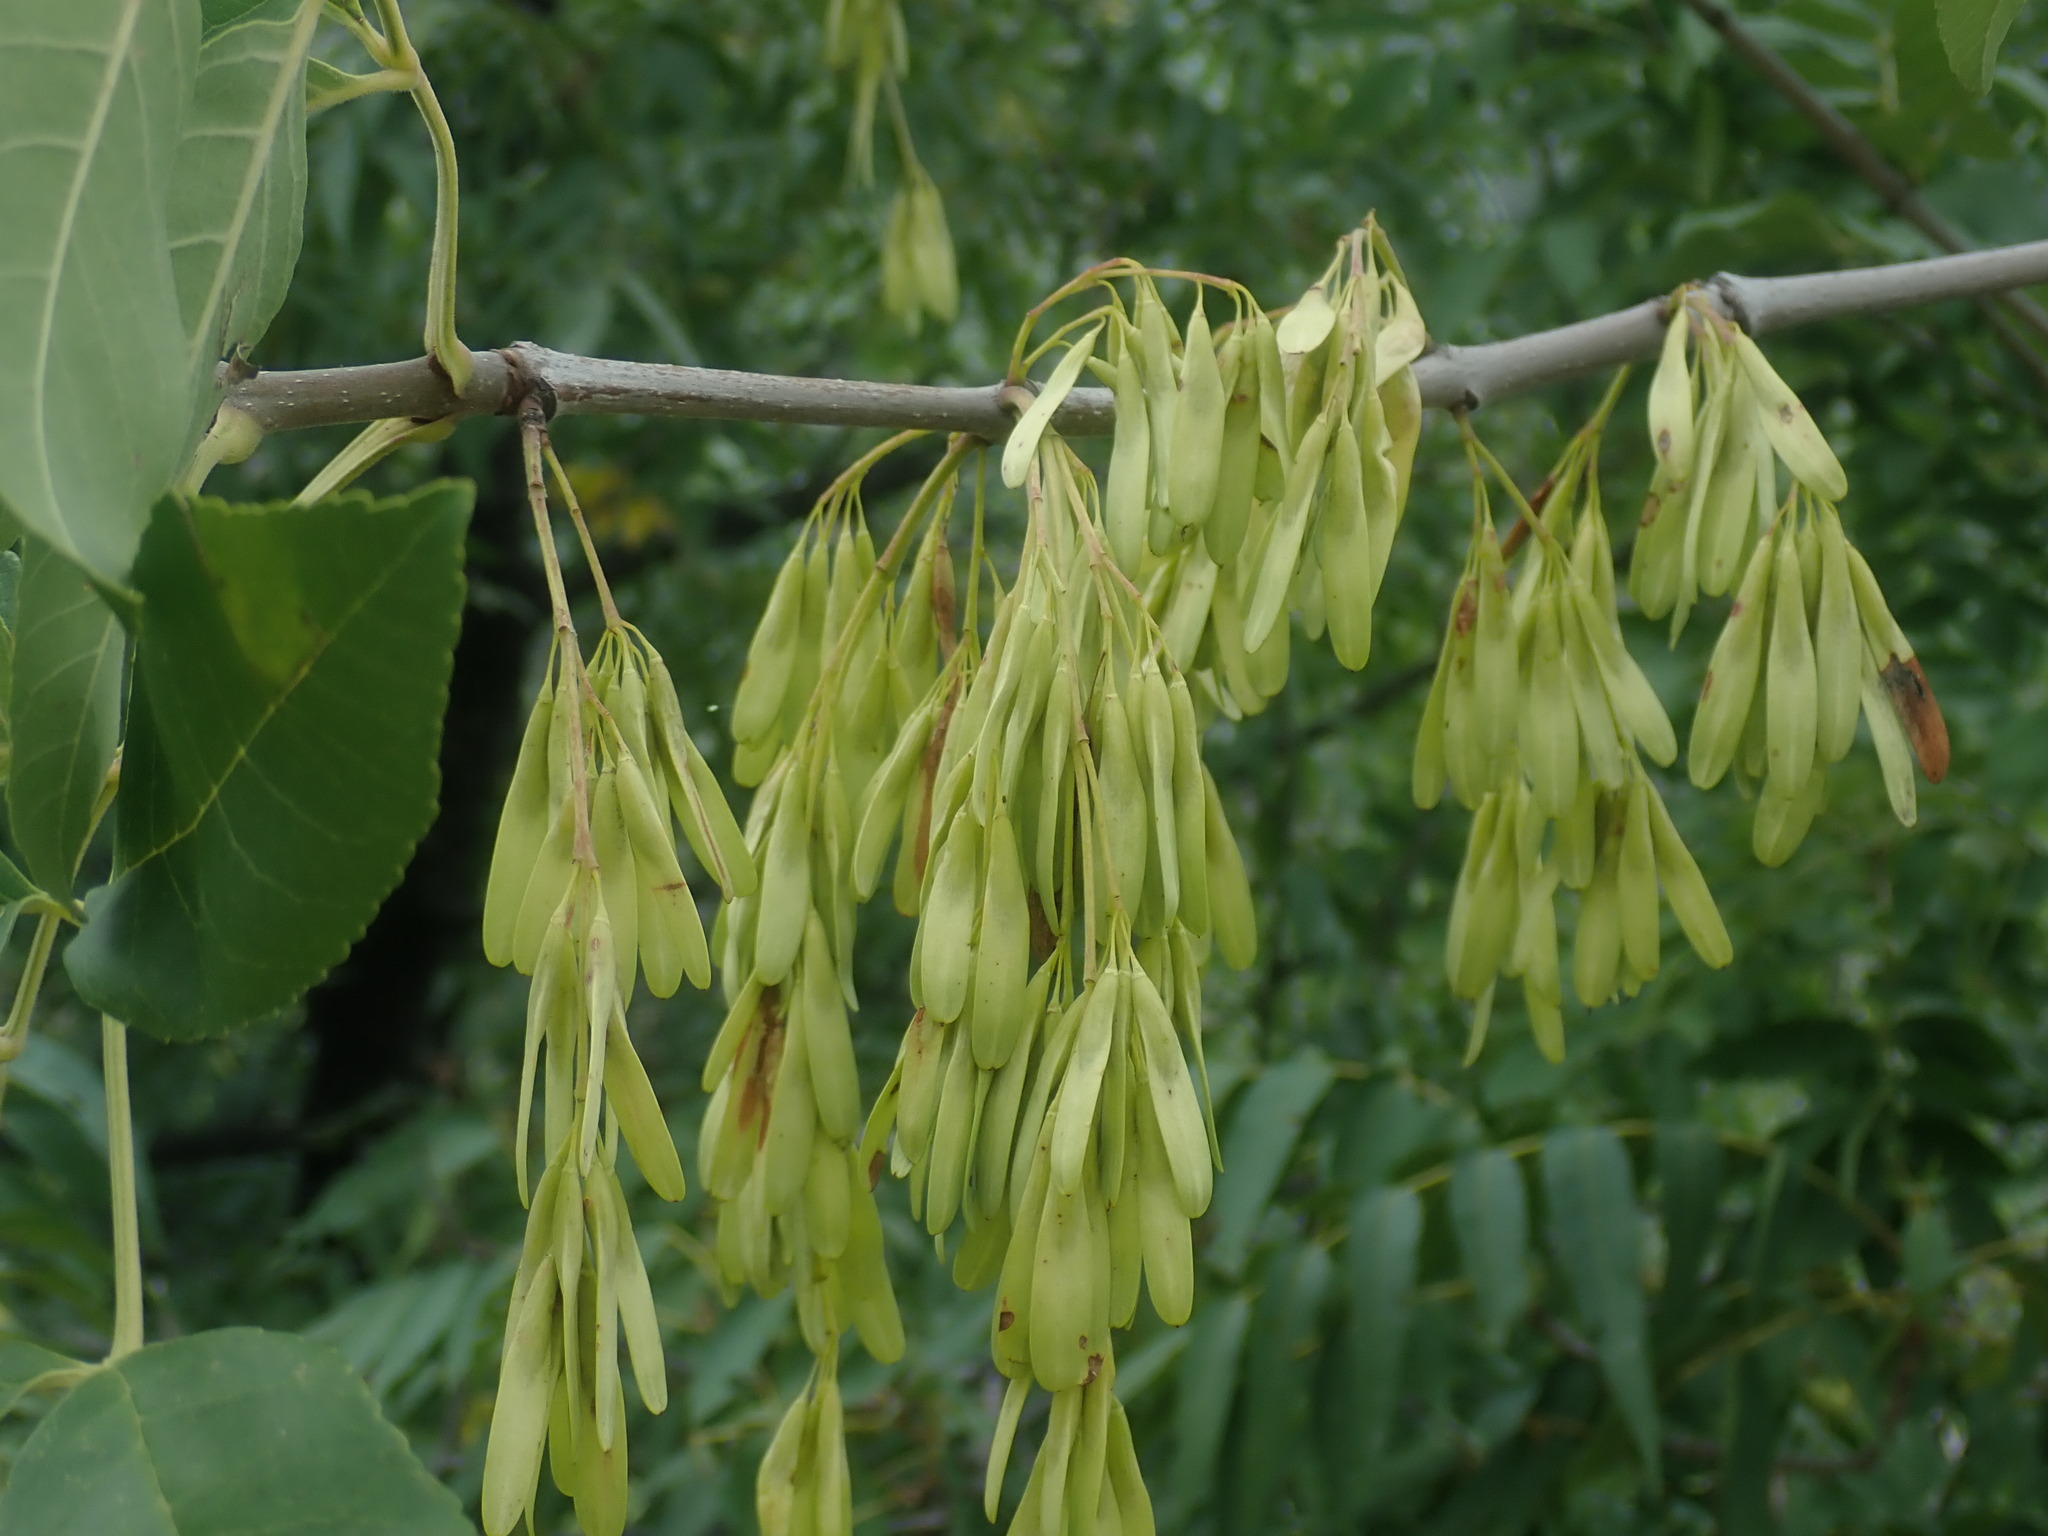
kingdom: Plantae
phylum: Tracheophyta
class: Magnoliopsida
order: Lamiales
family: Oleaceae
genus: Fraxinus
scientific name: Fraxinus velutina
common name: Arizon ash
